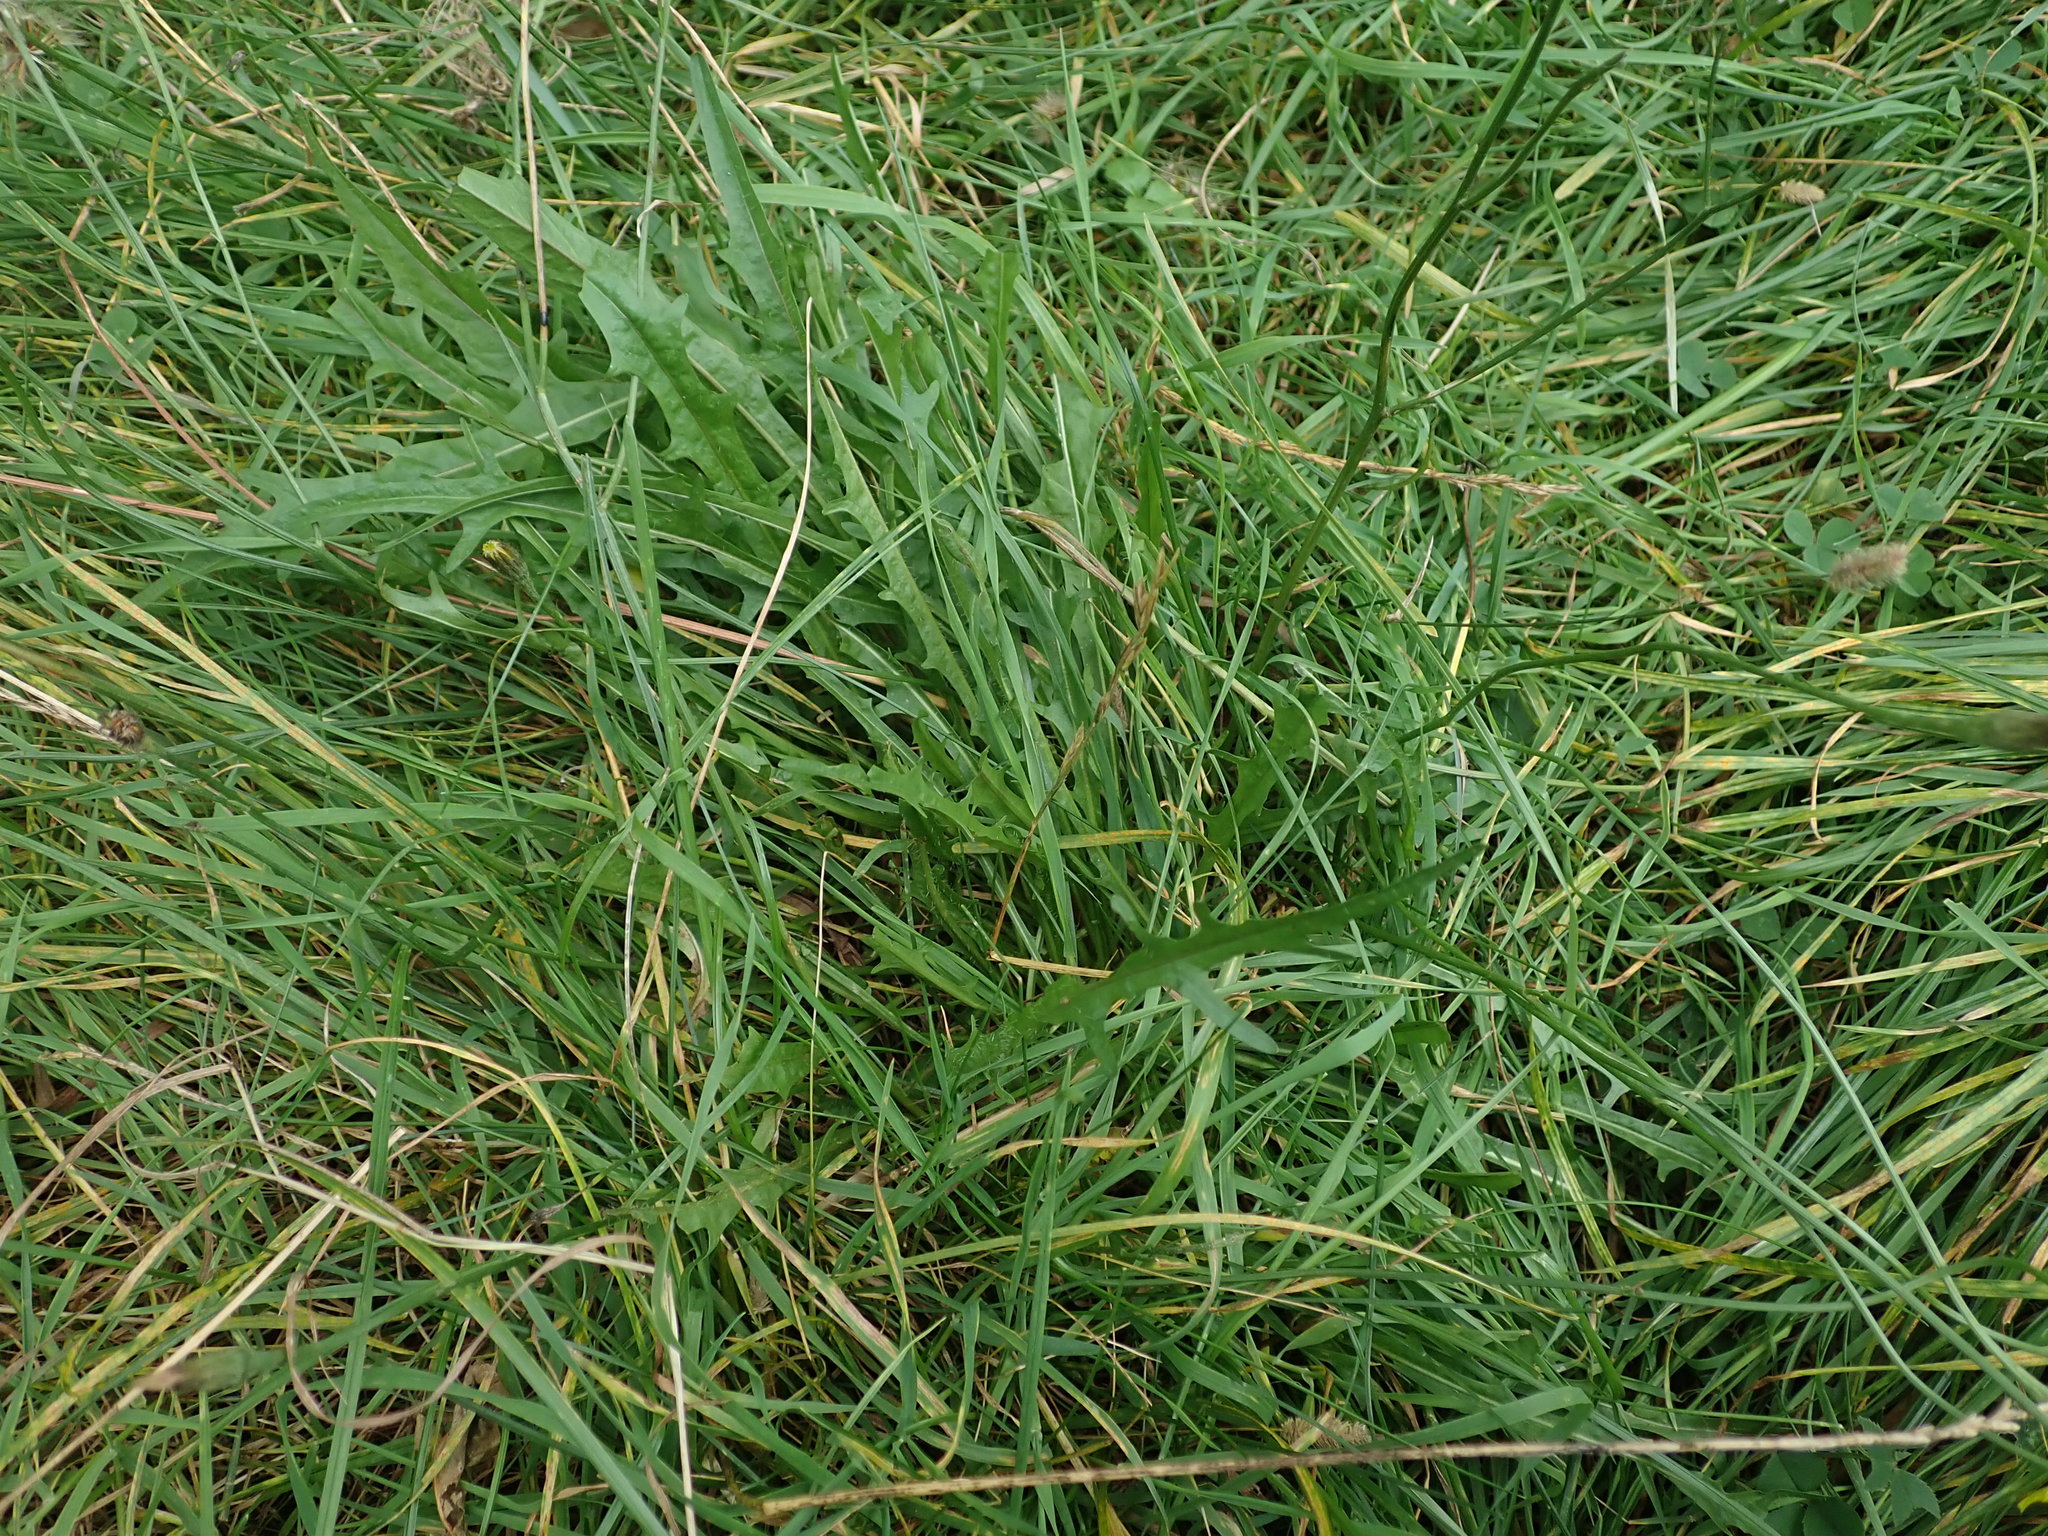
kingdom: Plantae
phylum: Tracheophyta
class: Magnoliopsida
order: Asterales
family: Asteraceae
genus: Scorzoneroides
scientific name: Scorzoneroides autumnalis
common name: Autumn hawkbit
